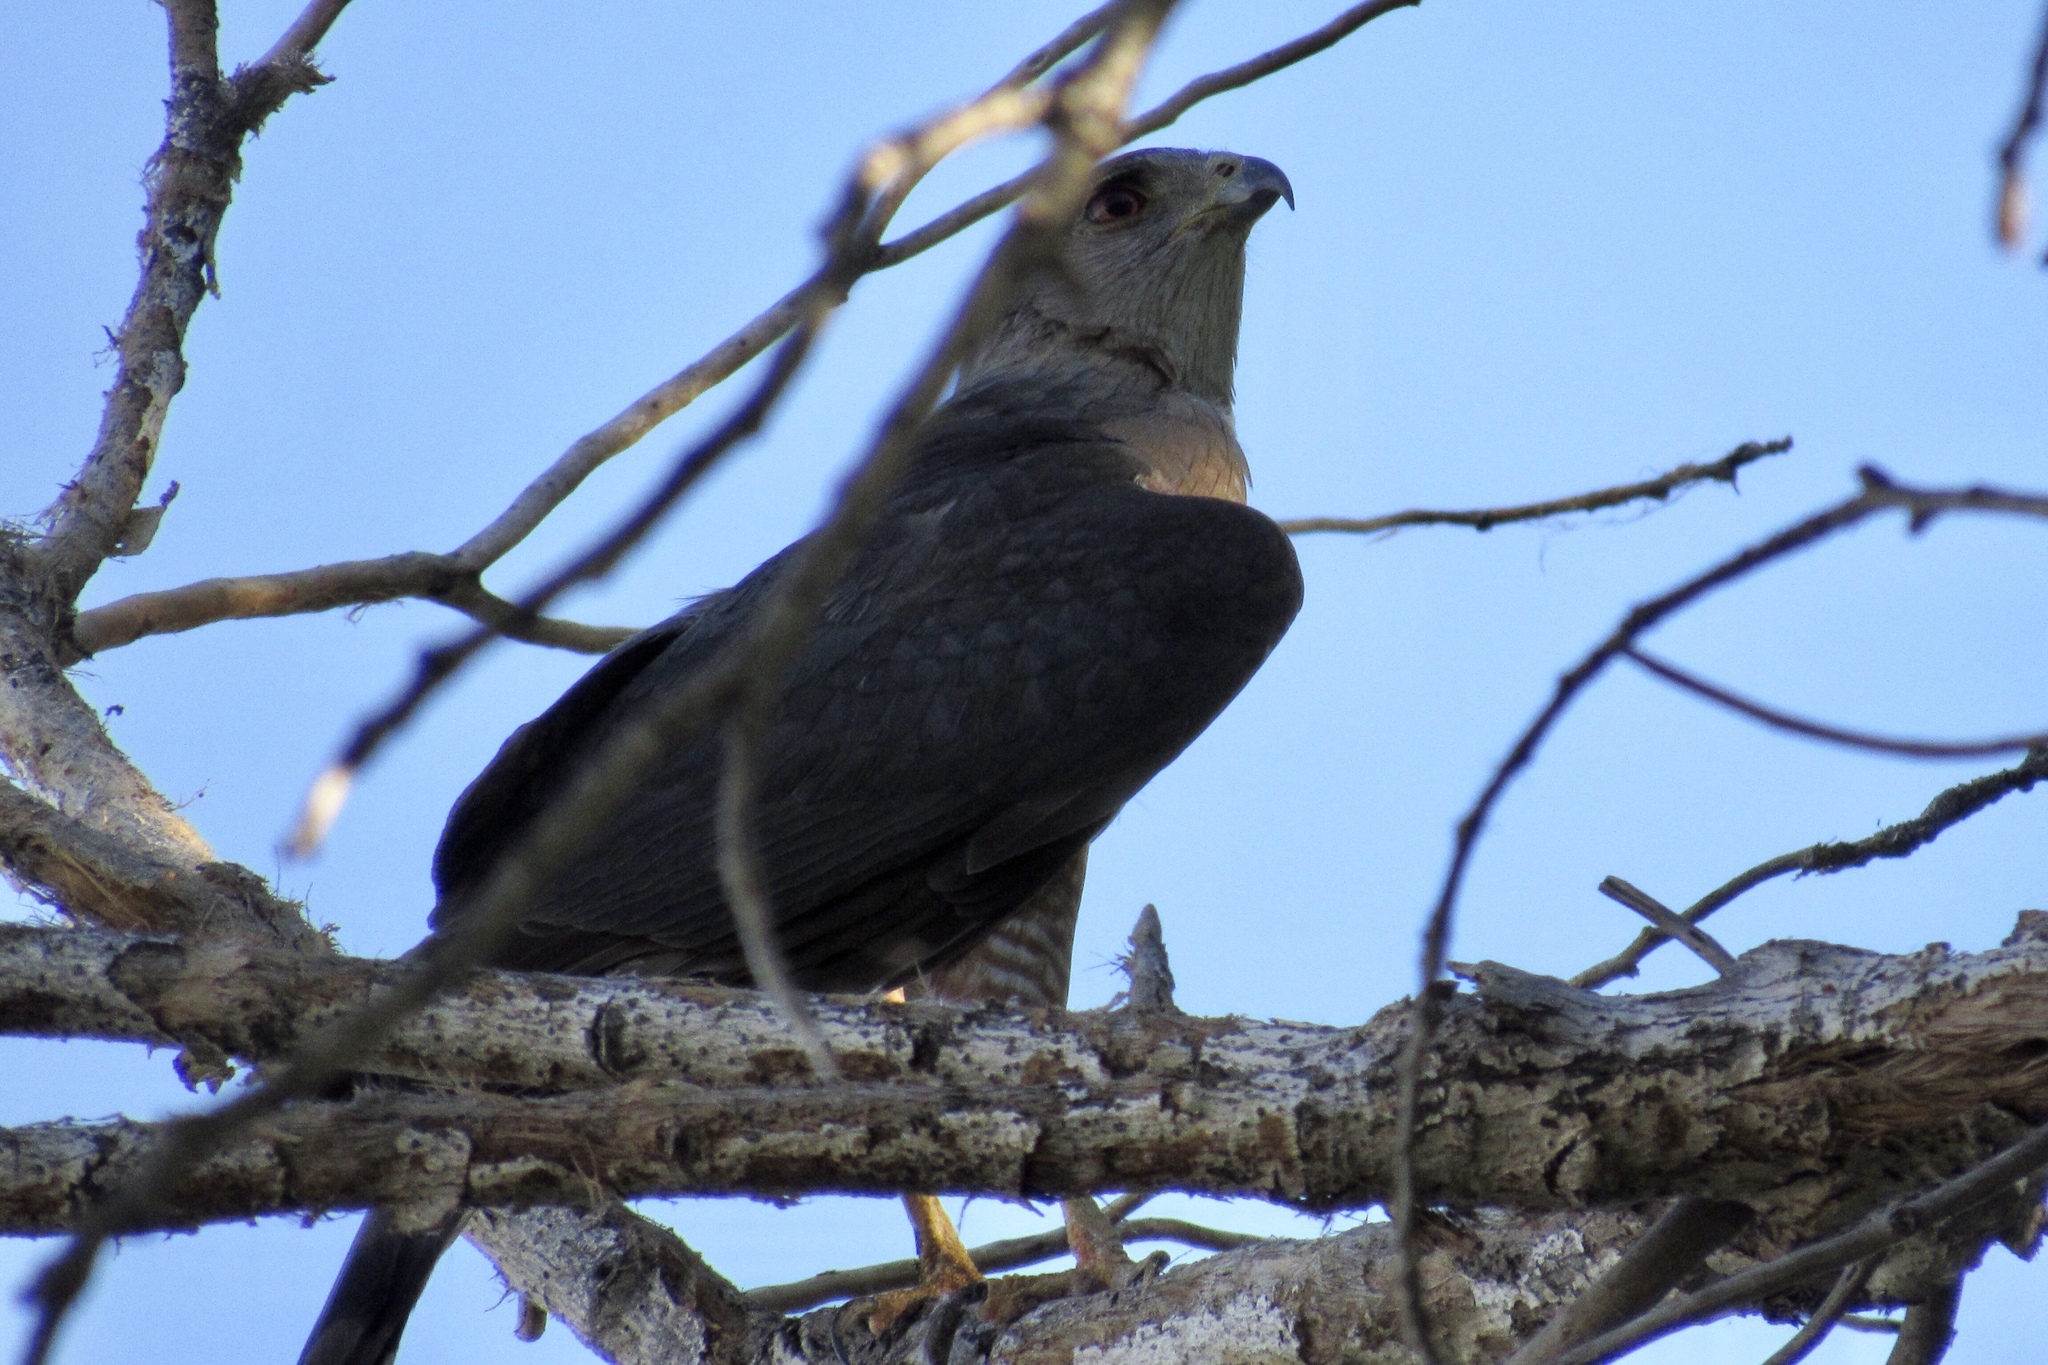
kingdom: Animalia
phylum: Chordata
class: Aves
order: Accipitriformes
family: Accipitridae
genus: Accipiter
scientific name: Accipiter cooperii
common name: Cooper's hawk
